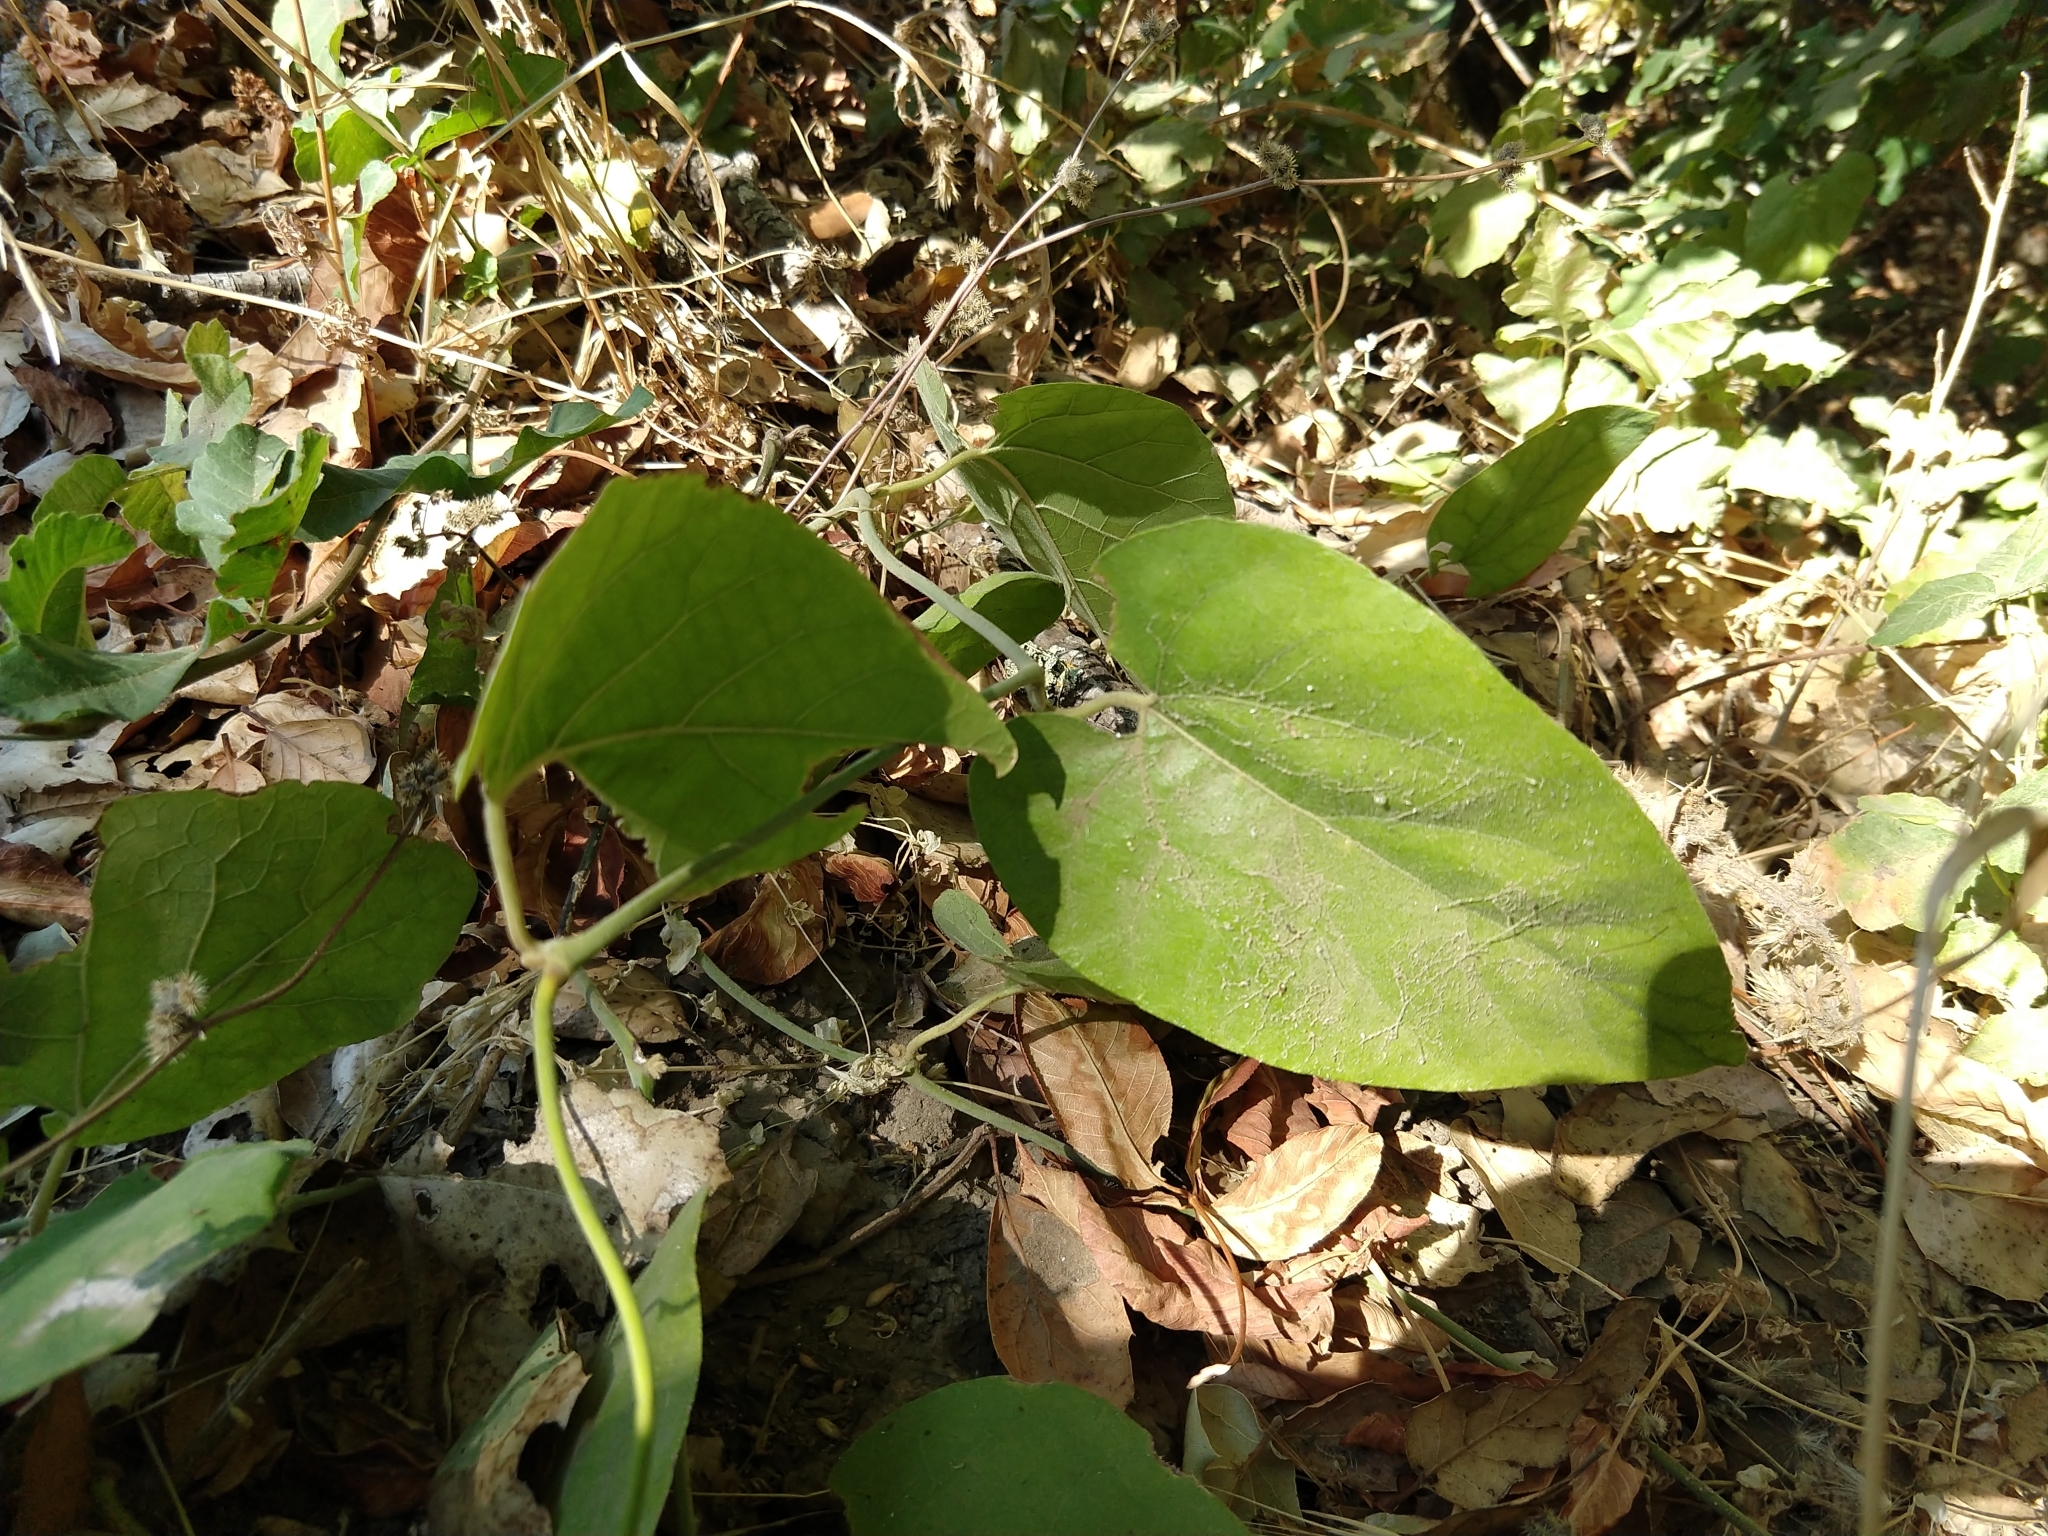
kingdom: Plantae
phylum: Tracheophyta
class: Magnoliopsida
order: Piperales
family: Aristolochiaceae
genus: Isotrema
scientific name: Isotrema californicum
